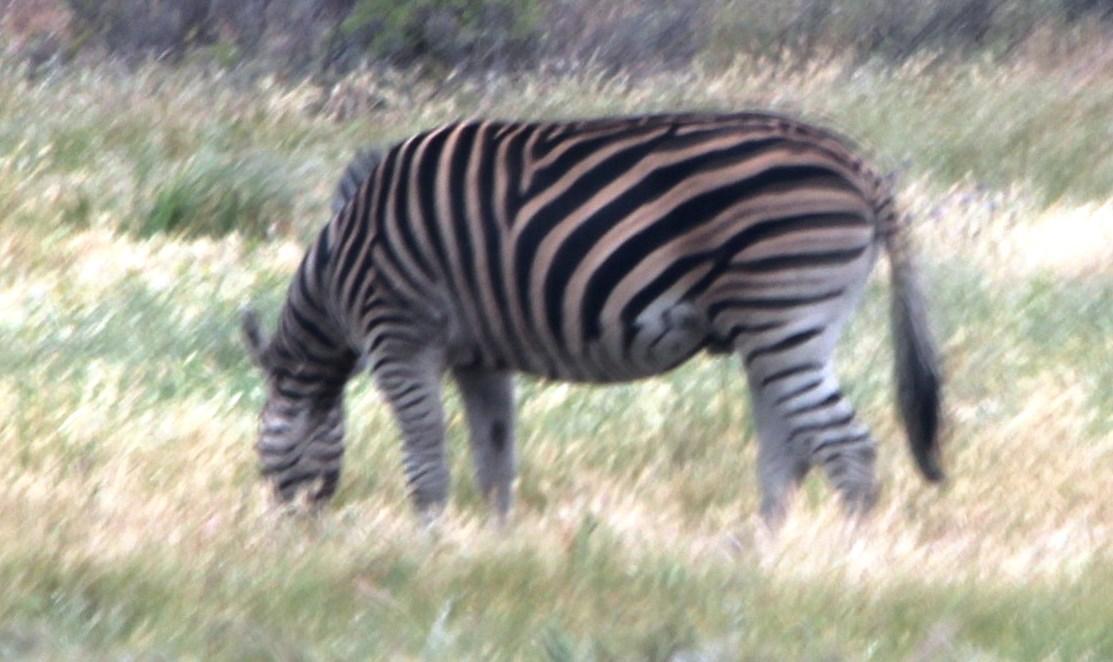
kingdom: Animalia
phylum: Chordata
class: Mammalia
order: Perissodactyla
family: Equidae
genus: Equus
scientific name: Equus quagga
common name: Plains zebra
